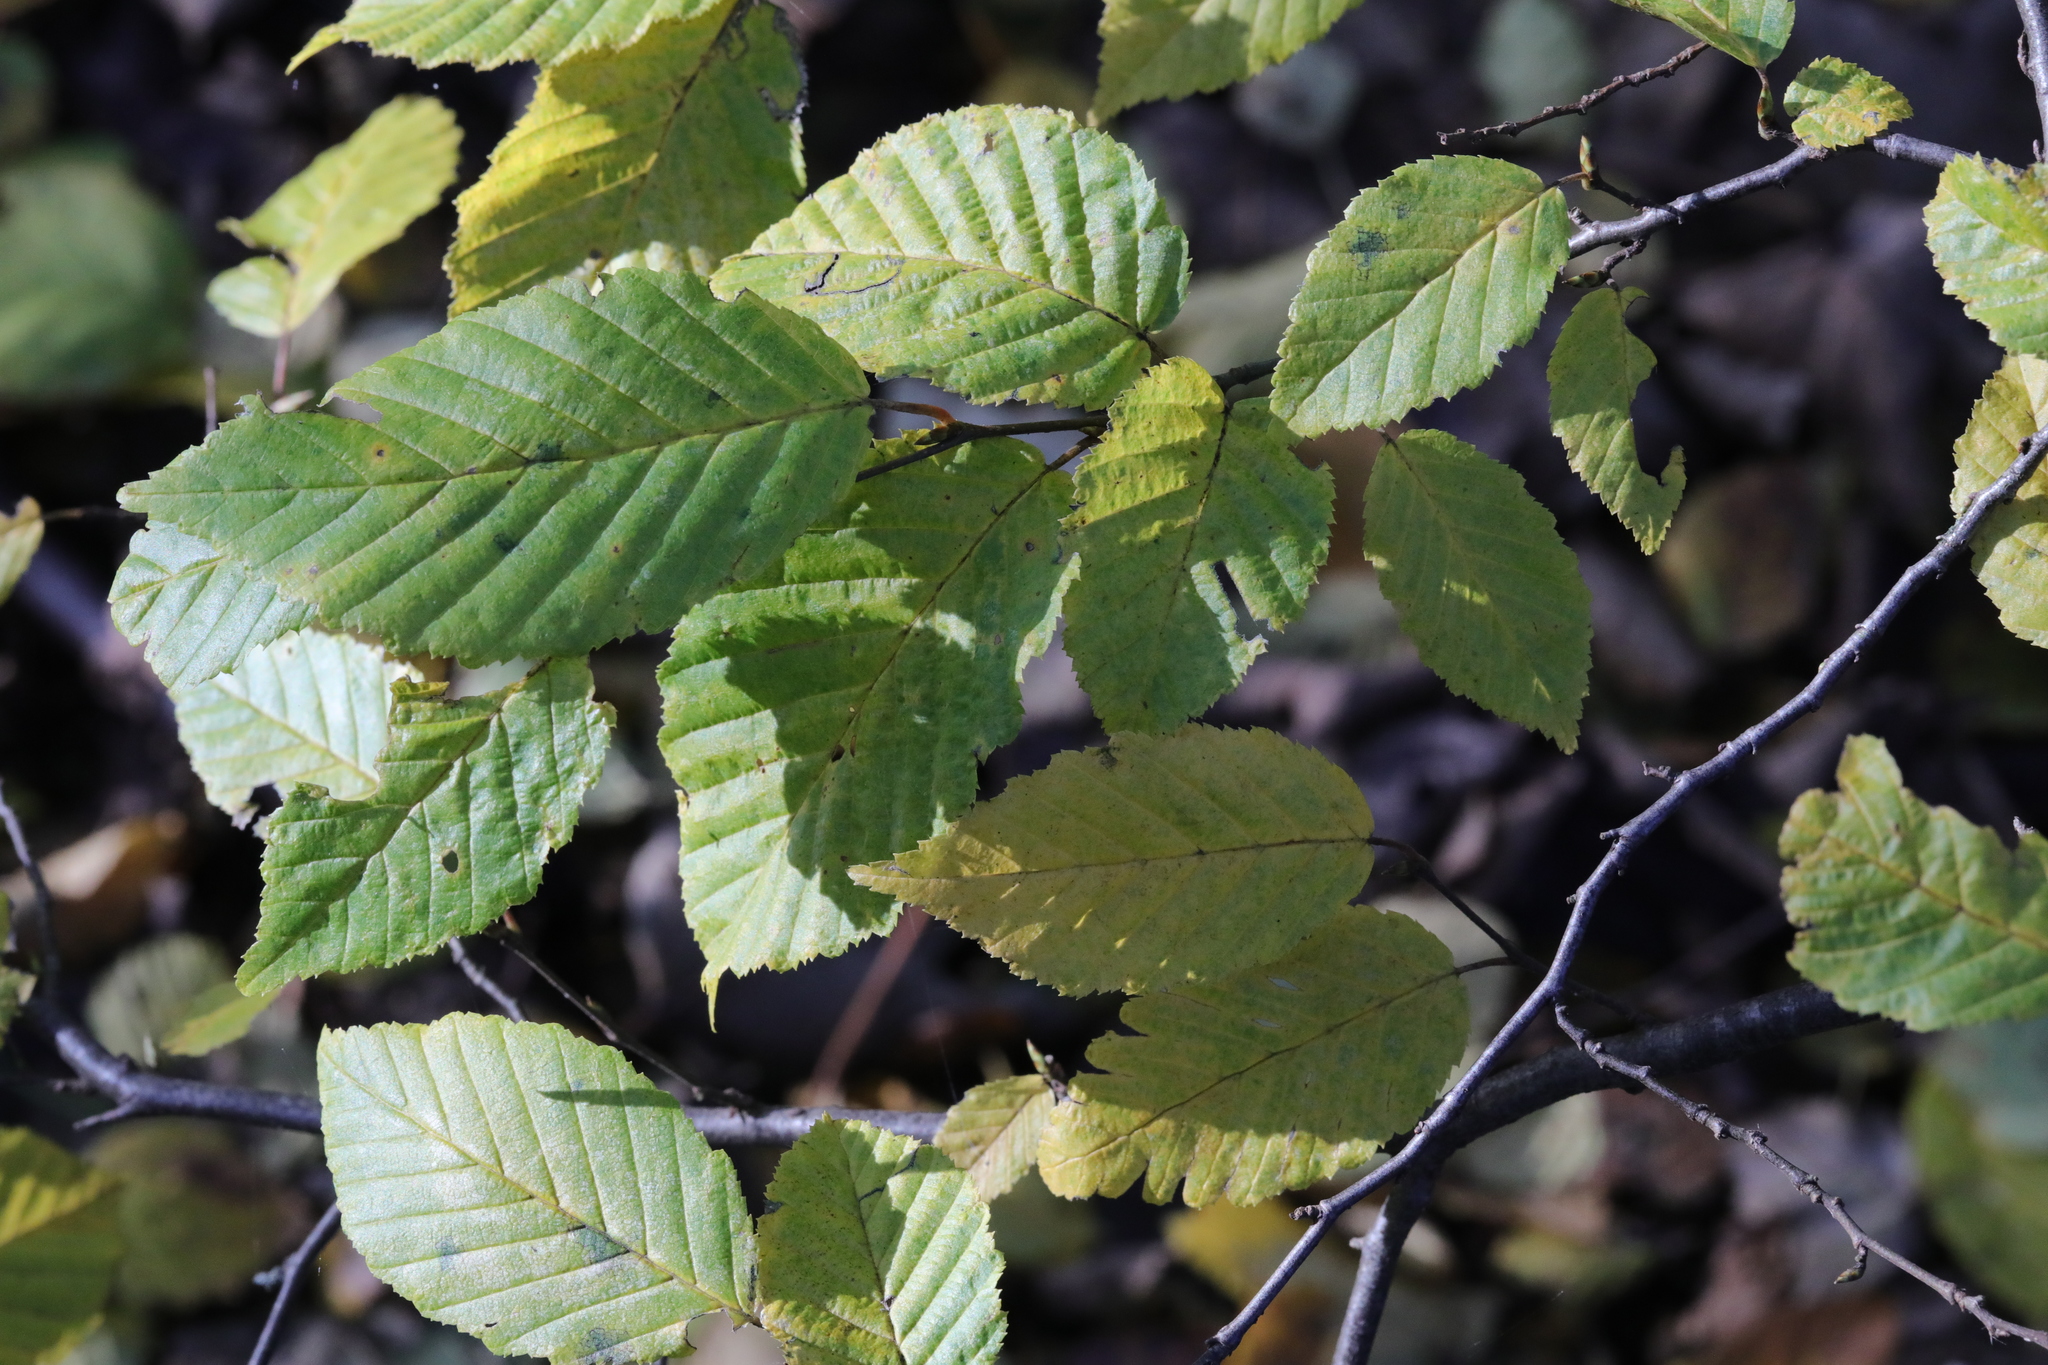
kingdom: Plantae
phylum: Tracheophyta
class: Magnoliopsida
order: Fagales
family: Betulaceae
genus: Carpinus
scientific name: Carpinus betulus
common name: Hornbeam
